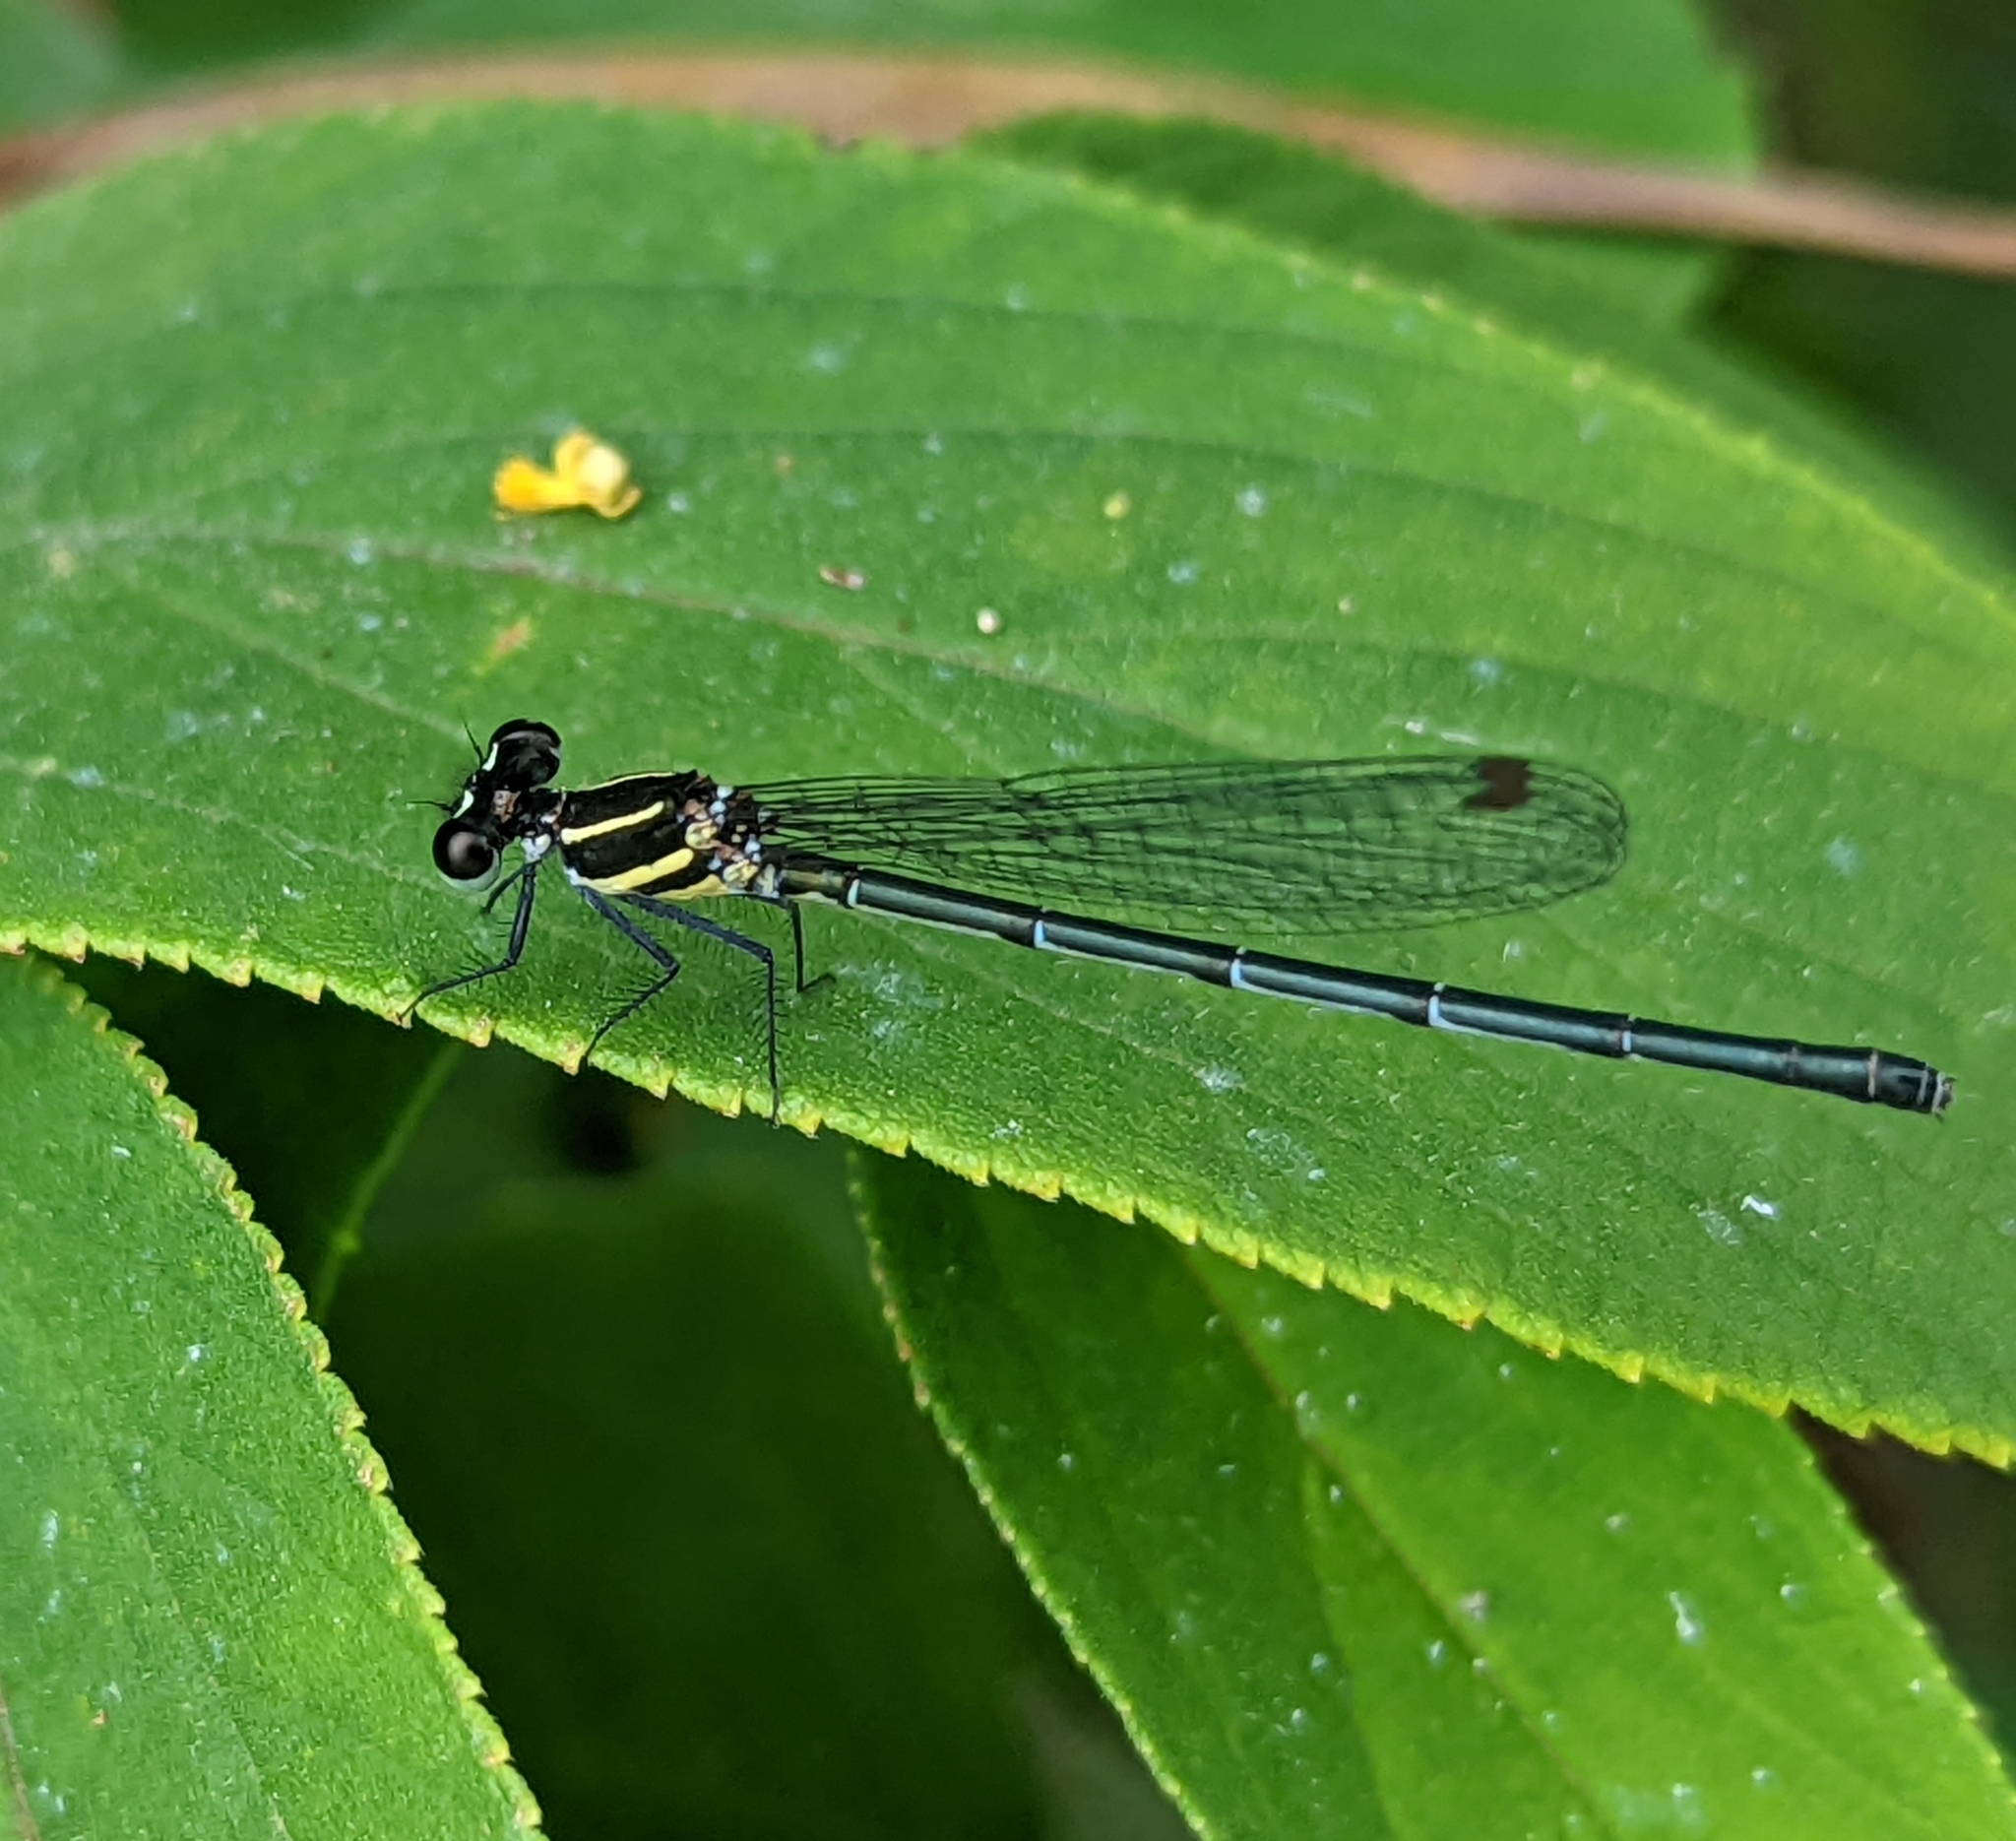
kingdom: Animalia
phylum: Arthropoda
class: Insecta
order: Odonata
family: Platycnemididae
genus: Onychargia
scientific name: Onychargia atrocyana
